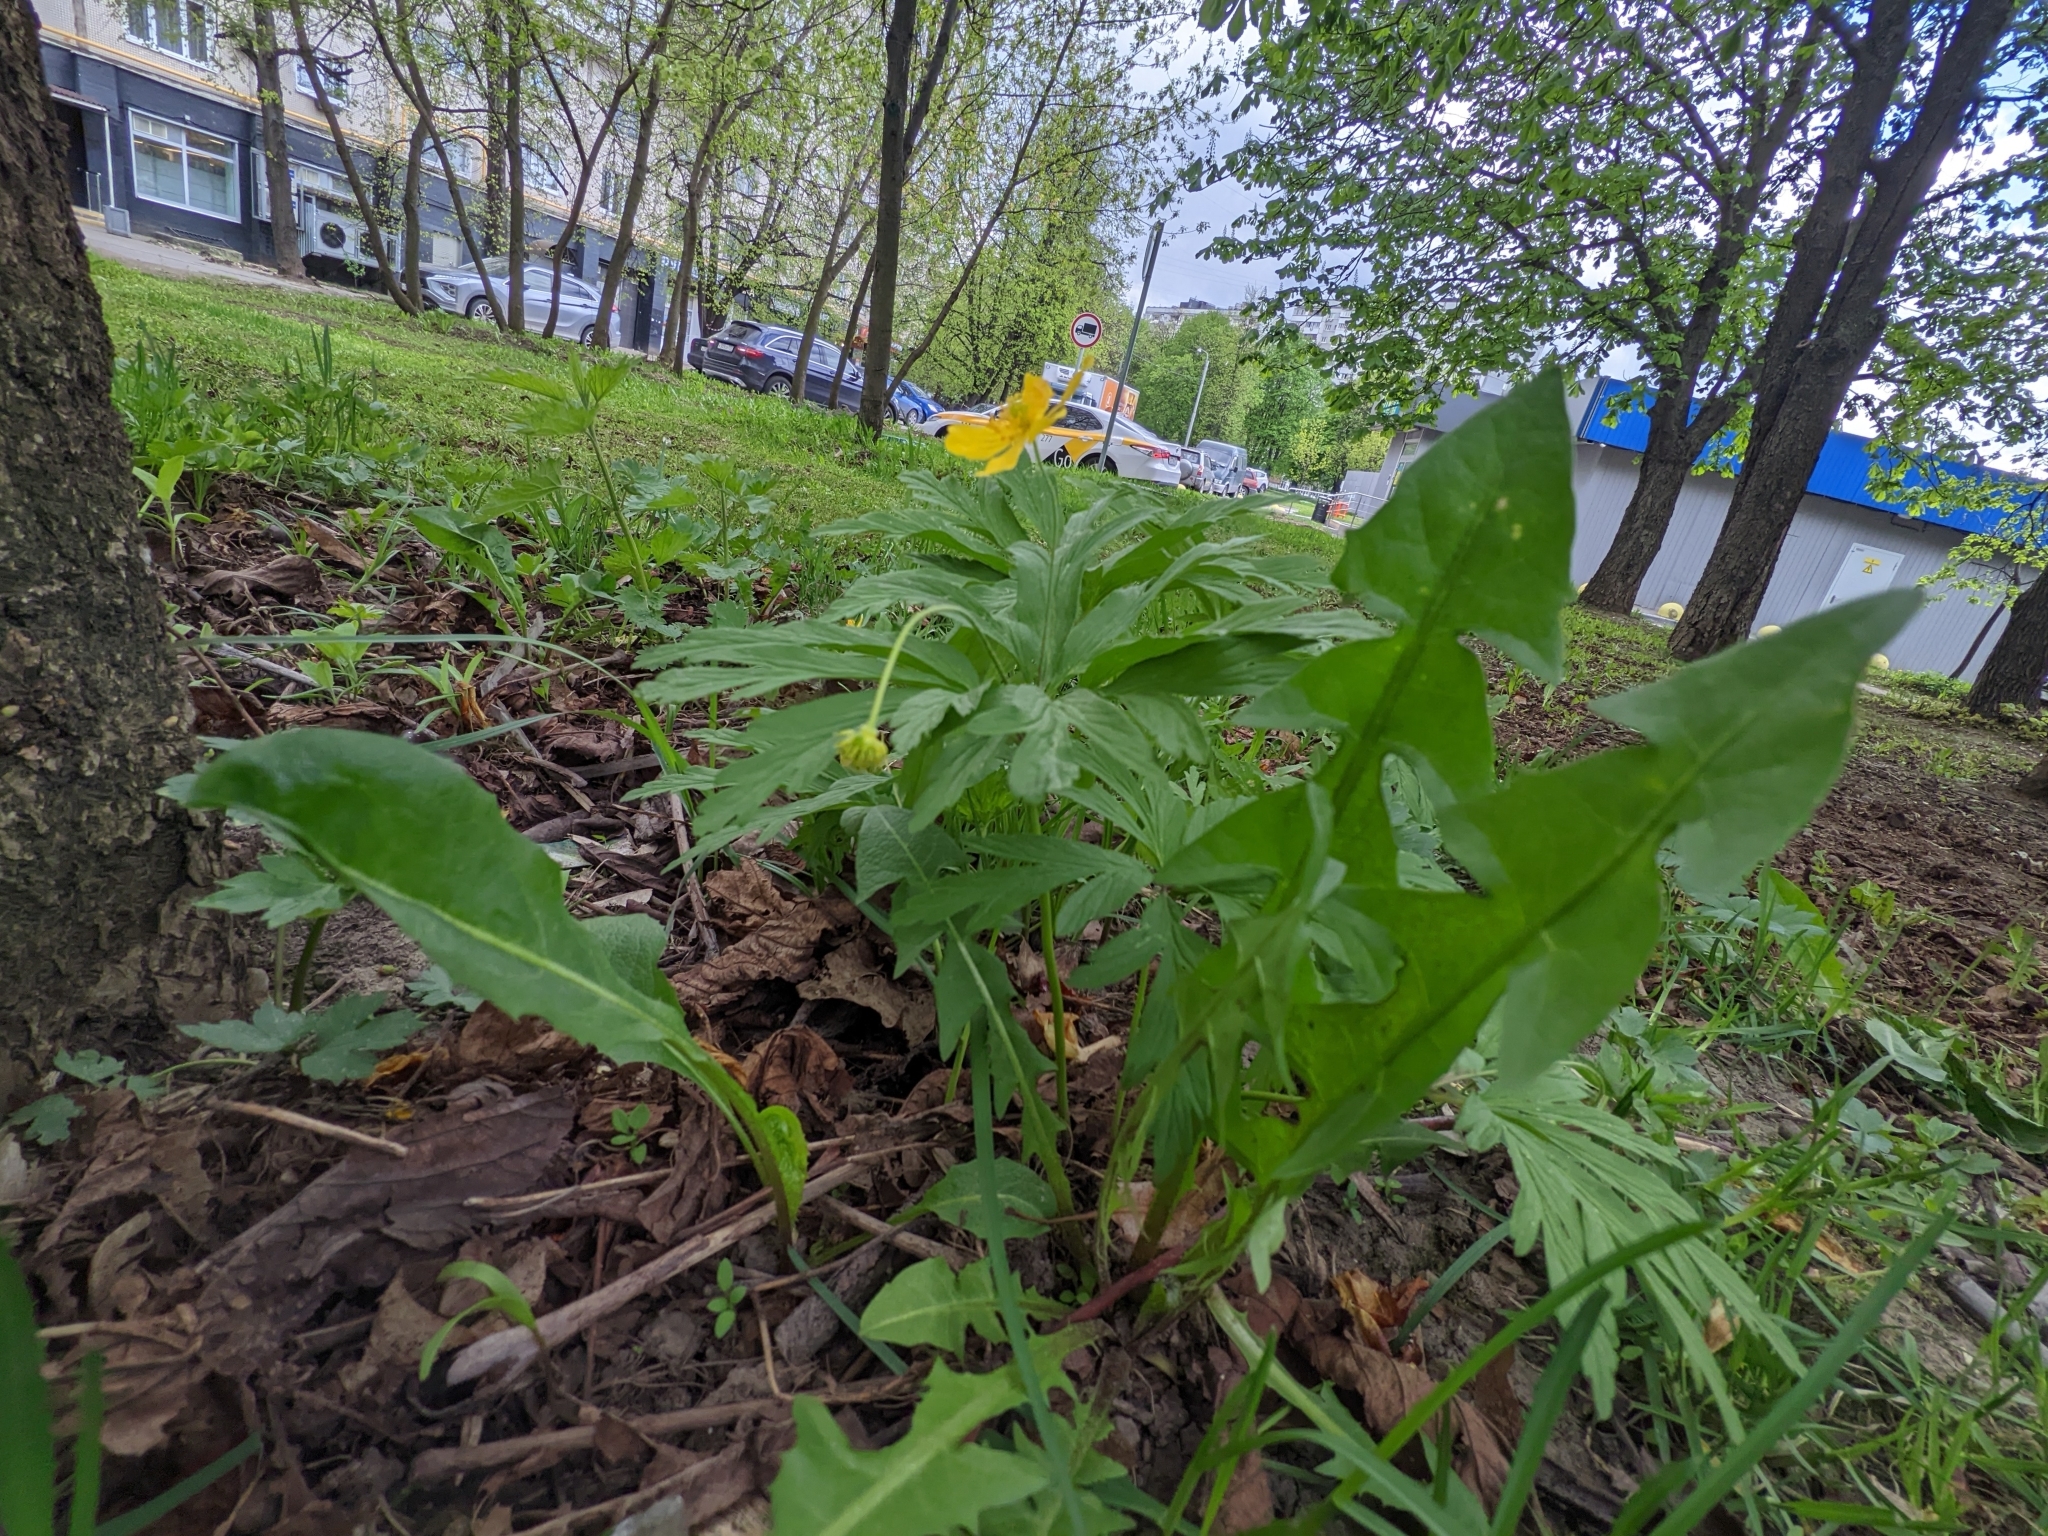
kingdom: Plantae
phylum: Tracheophyta
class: Magnoliopsida
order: Ranunculales
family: Ranunculaceae
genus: Anemone
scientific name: Anemone ranunculoides
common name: Yellow anemone
